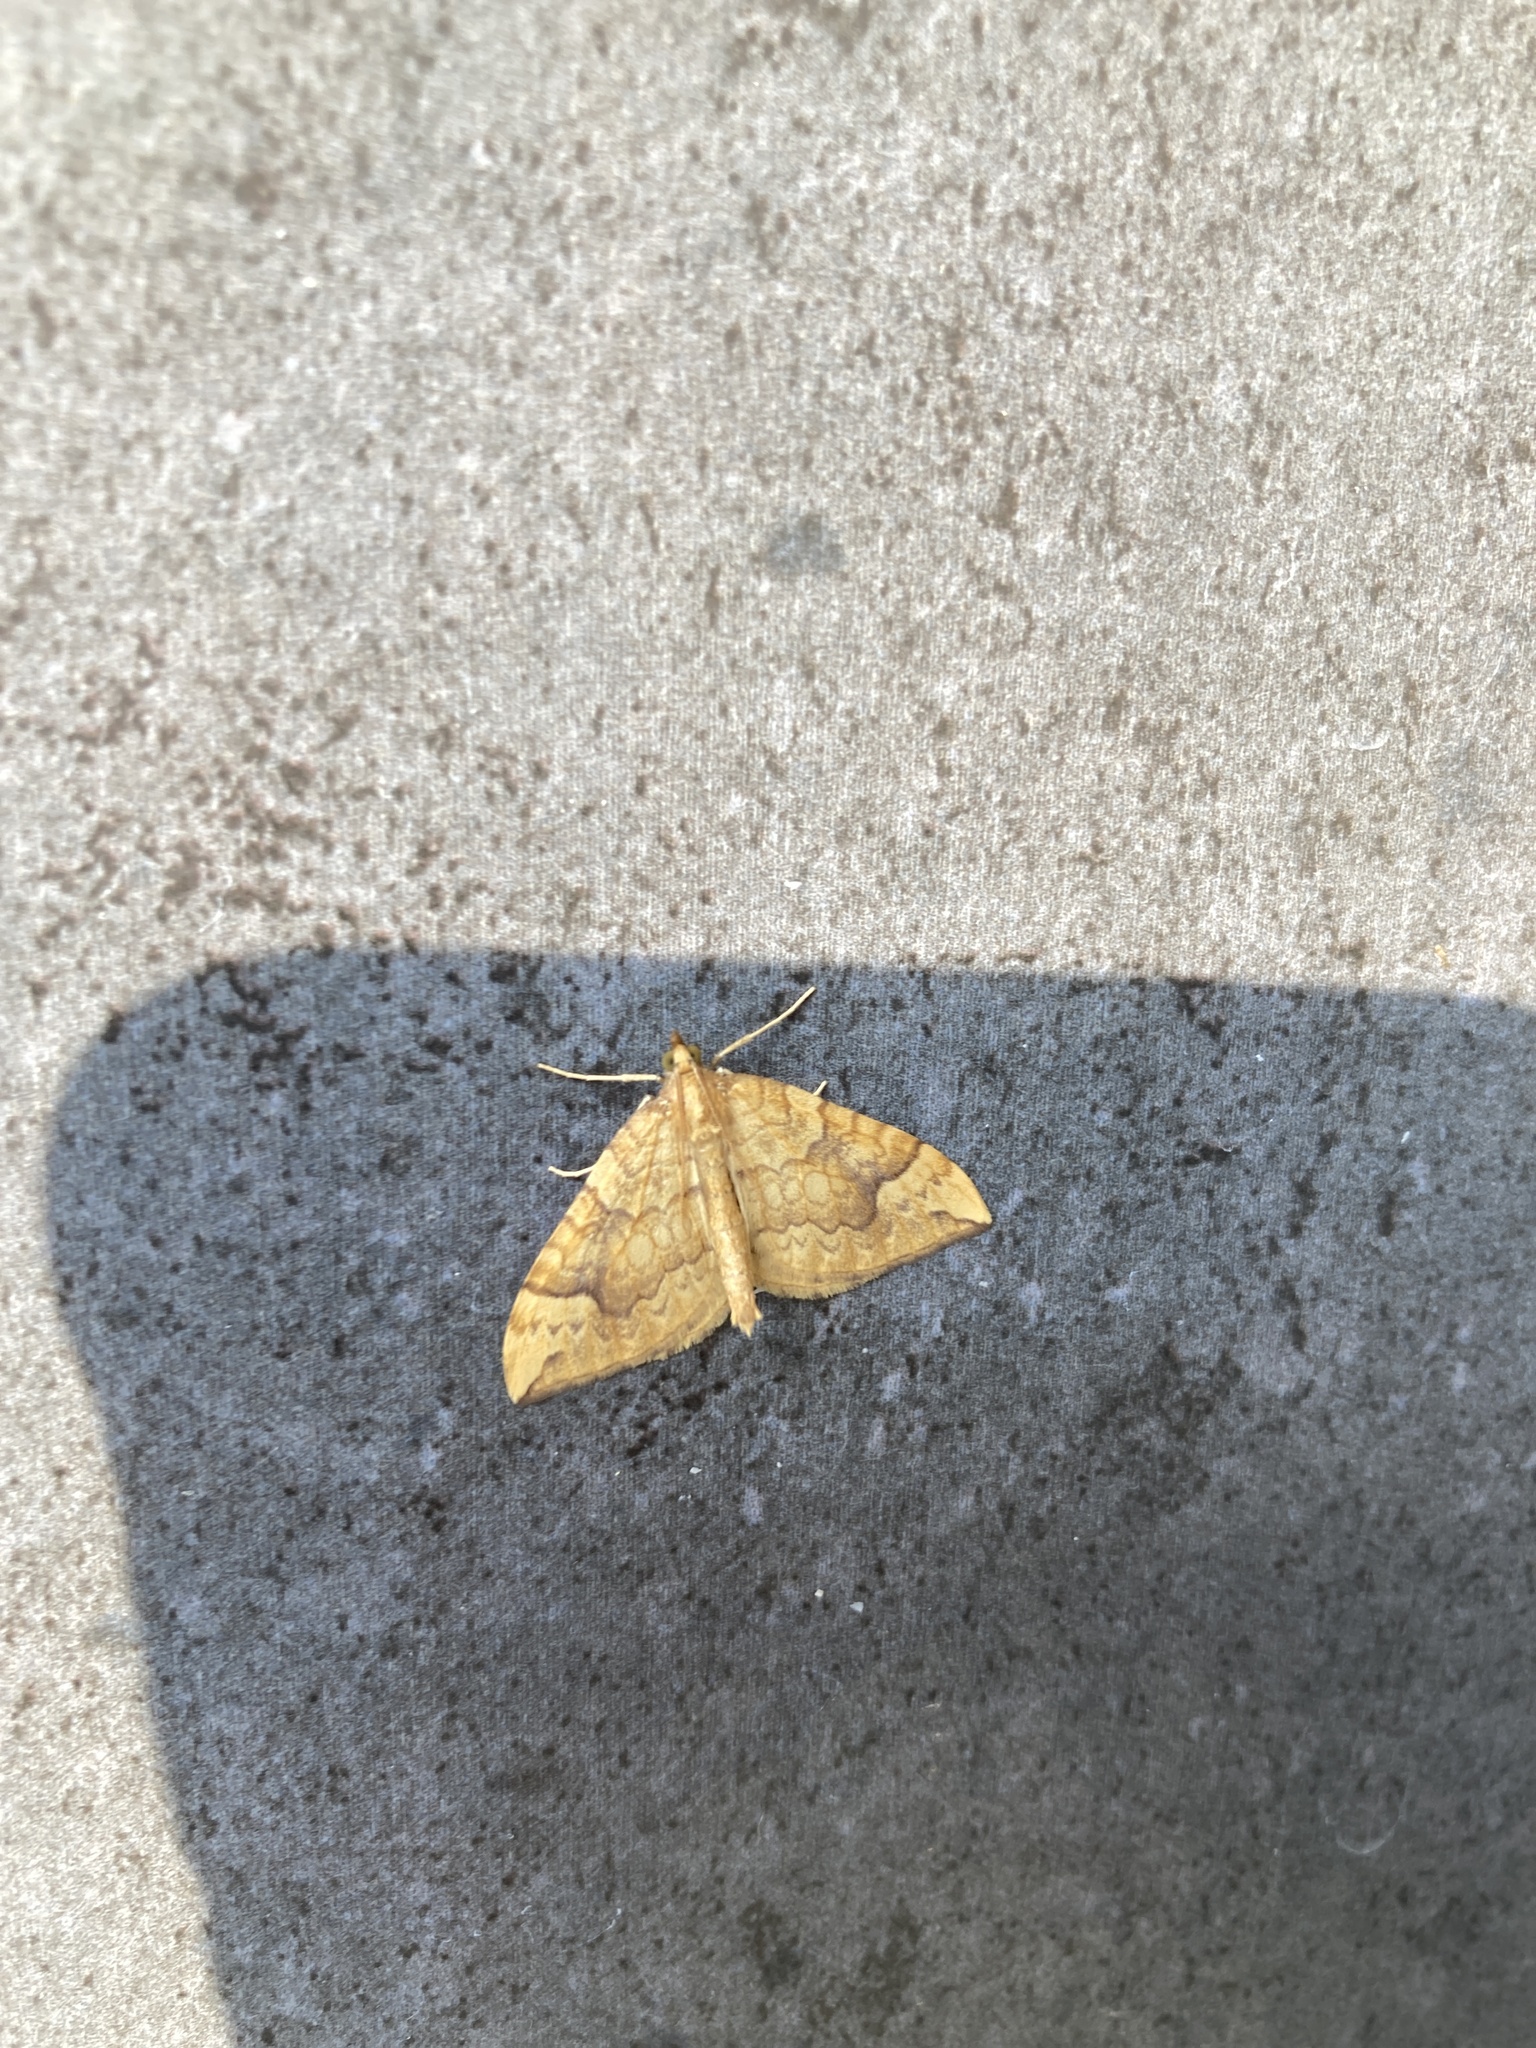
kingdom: Animalia
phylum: Arthropoda
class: Insecta
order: Lepidoptera
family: Geometridae
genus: Eulithis
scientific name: Eulithis populata
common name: Northern spinach
